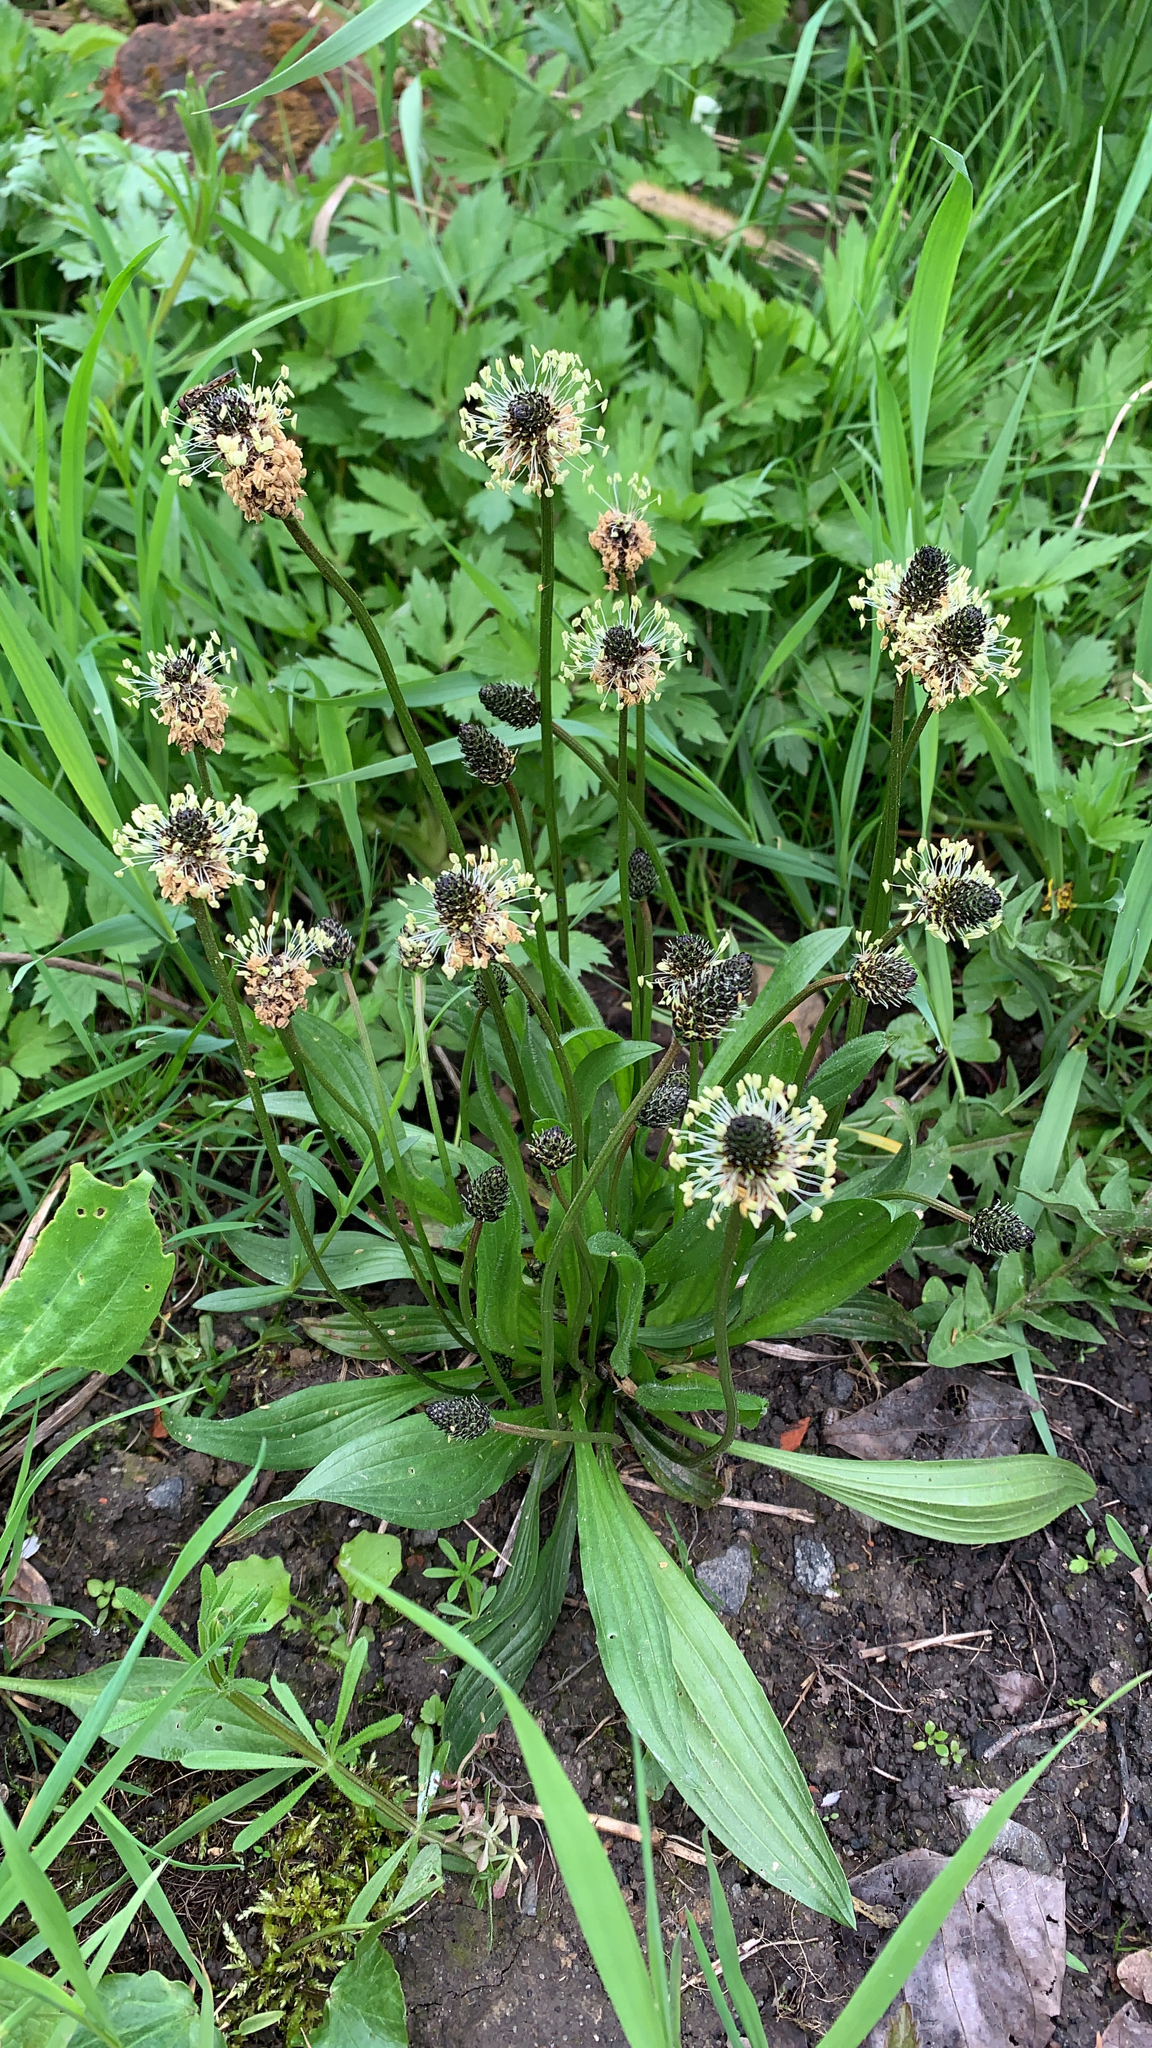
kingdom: Plantae
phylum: Tracheophyta
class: Magnoliopsida
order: Lamiales
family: Plantaginaceae
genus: Plantago
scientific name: Plantago lanceolata
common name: Ribwort plantain
